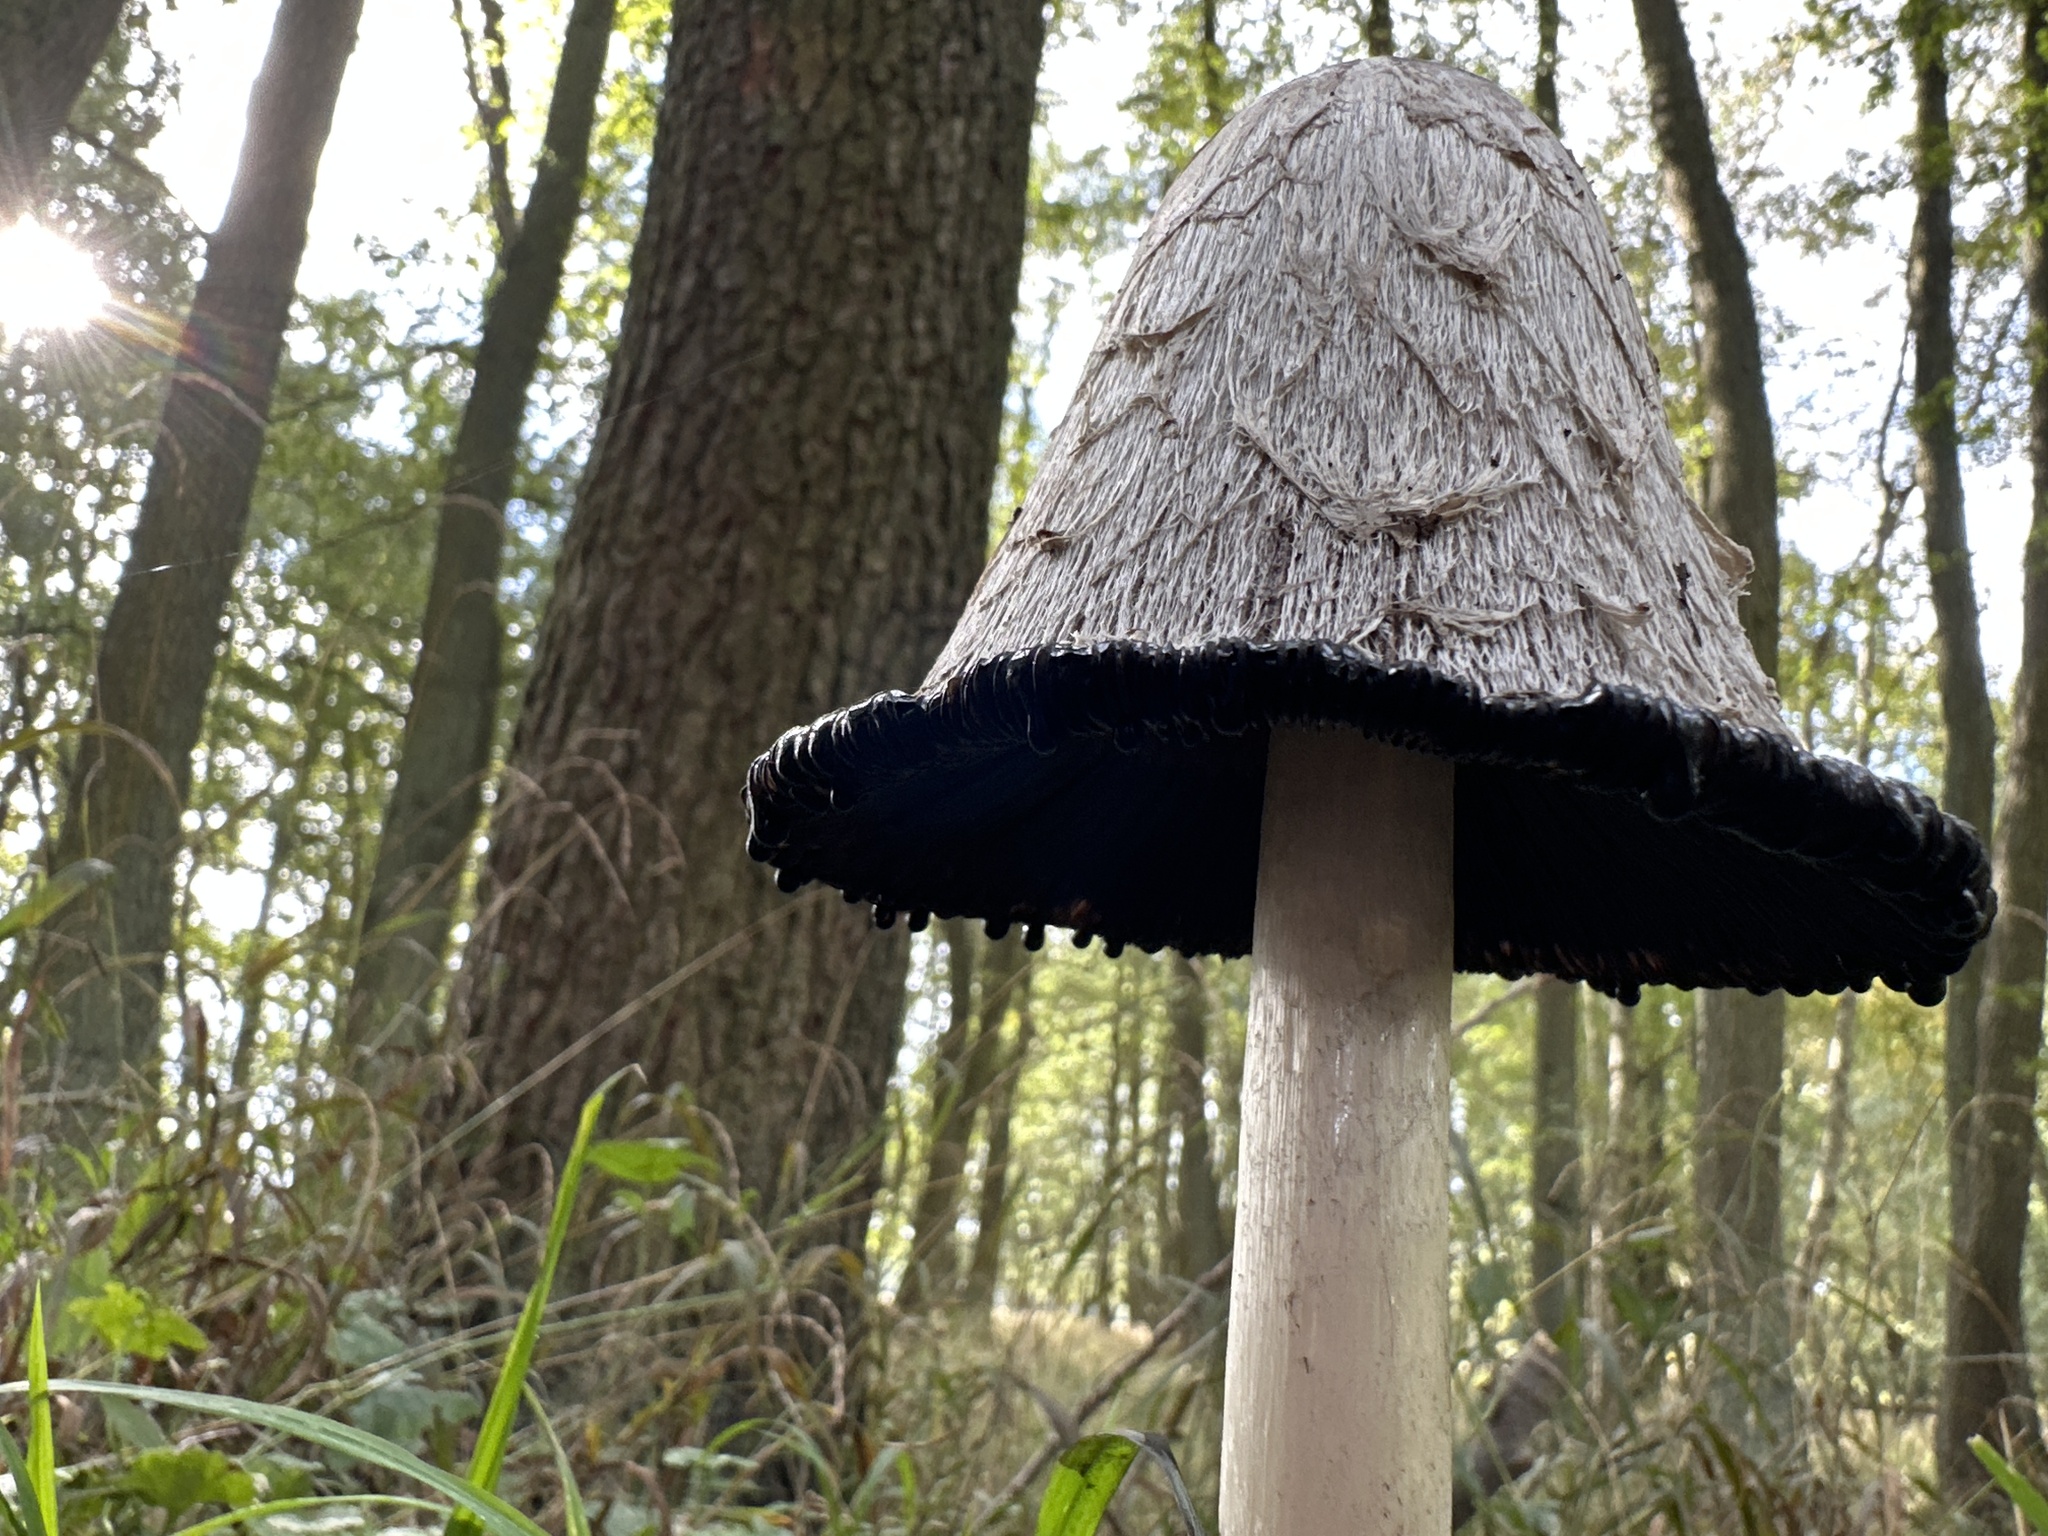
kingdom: Fungi
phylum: Basidiomycota
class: Agaricomycetes
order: Agaricales
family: Agaricaceae
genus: Coprinus
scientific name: Coprinus comatus
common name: Lawyer's wig
